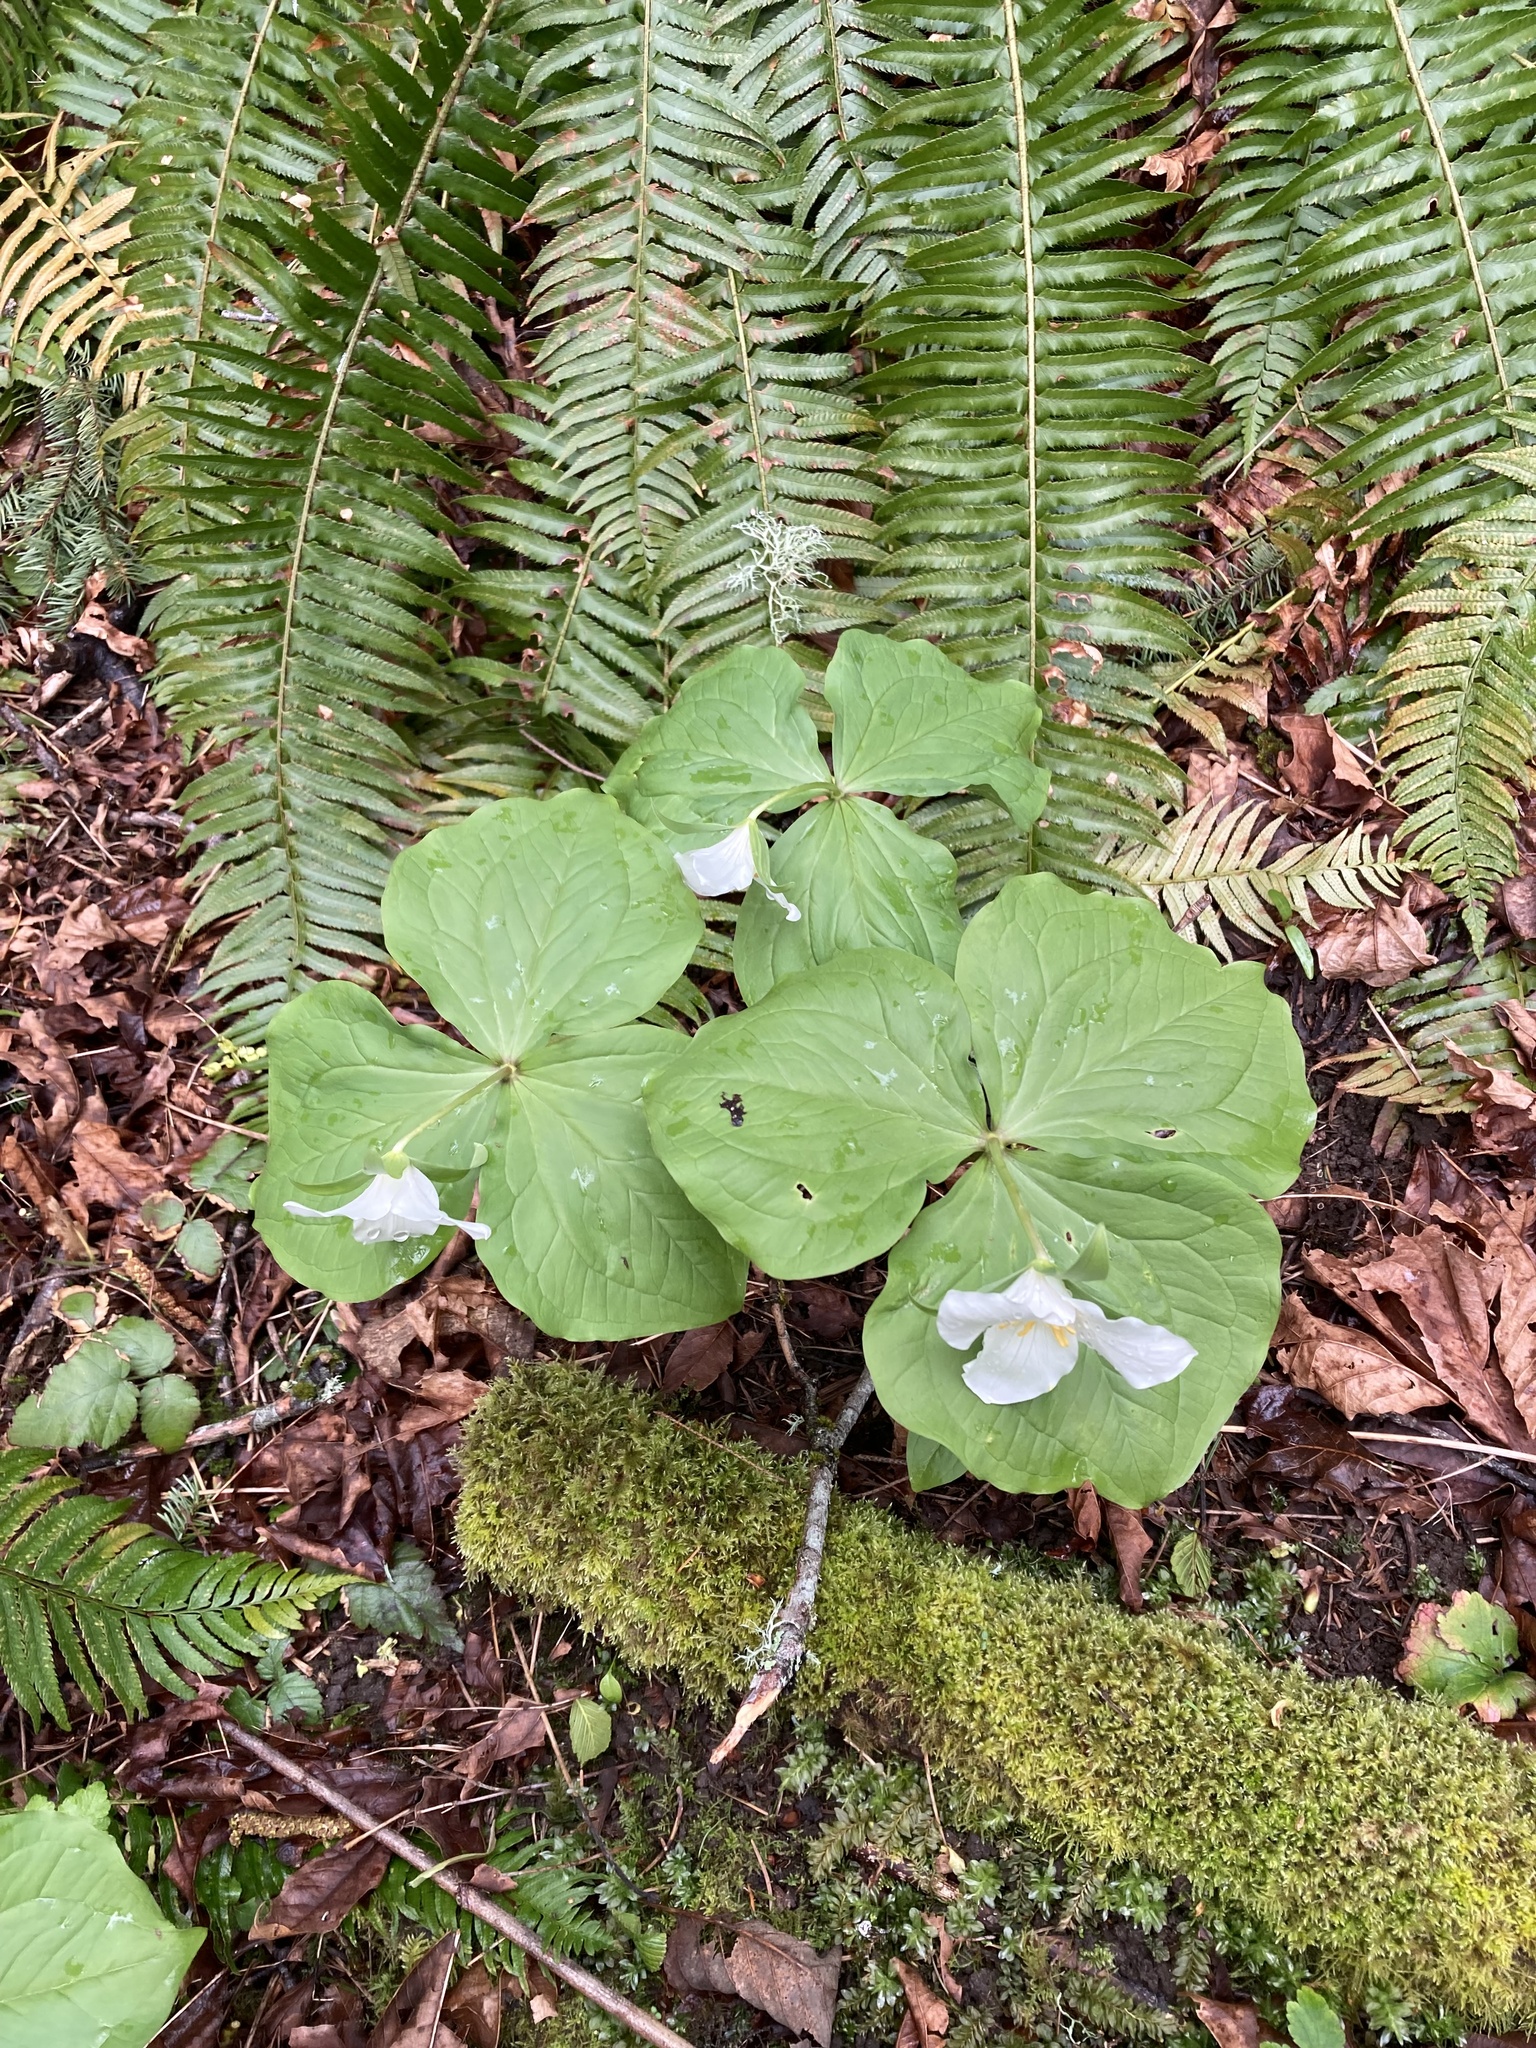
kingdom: Plantae
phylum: Tracheophyta
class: Liliopsida
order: Liliales
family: Melanthiaceae
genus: Trillium
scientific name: Trillium ovatum
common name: Pacific trillium
